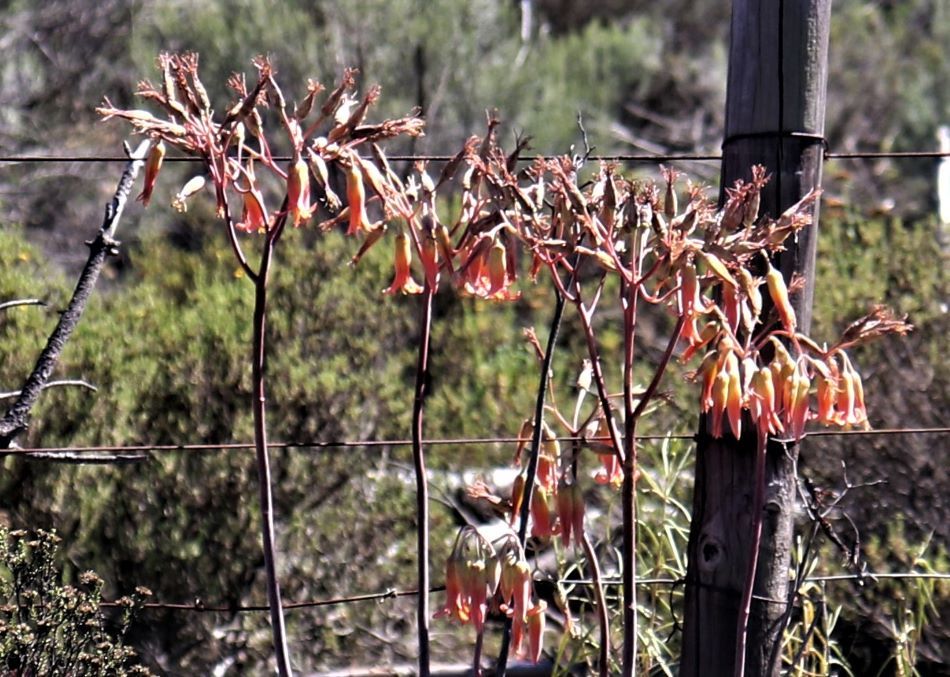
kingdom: Plantae
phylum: Tracheophyta
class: Magnoliopsida
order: Saxifragales
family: Crassulaceae
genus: Cotyledon
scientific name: Cotyledon orbiculata
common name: Pig's ear
